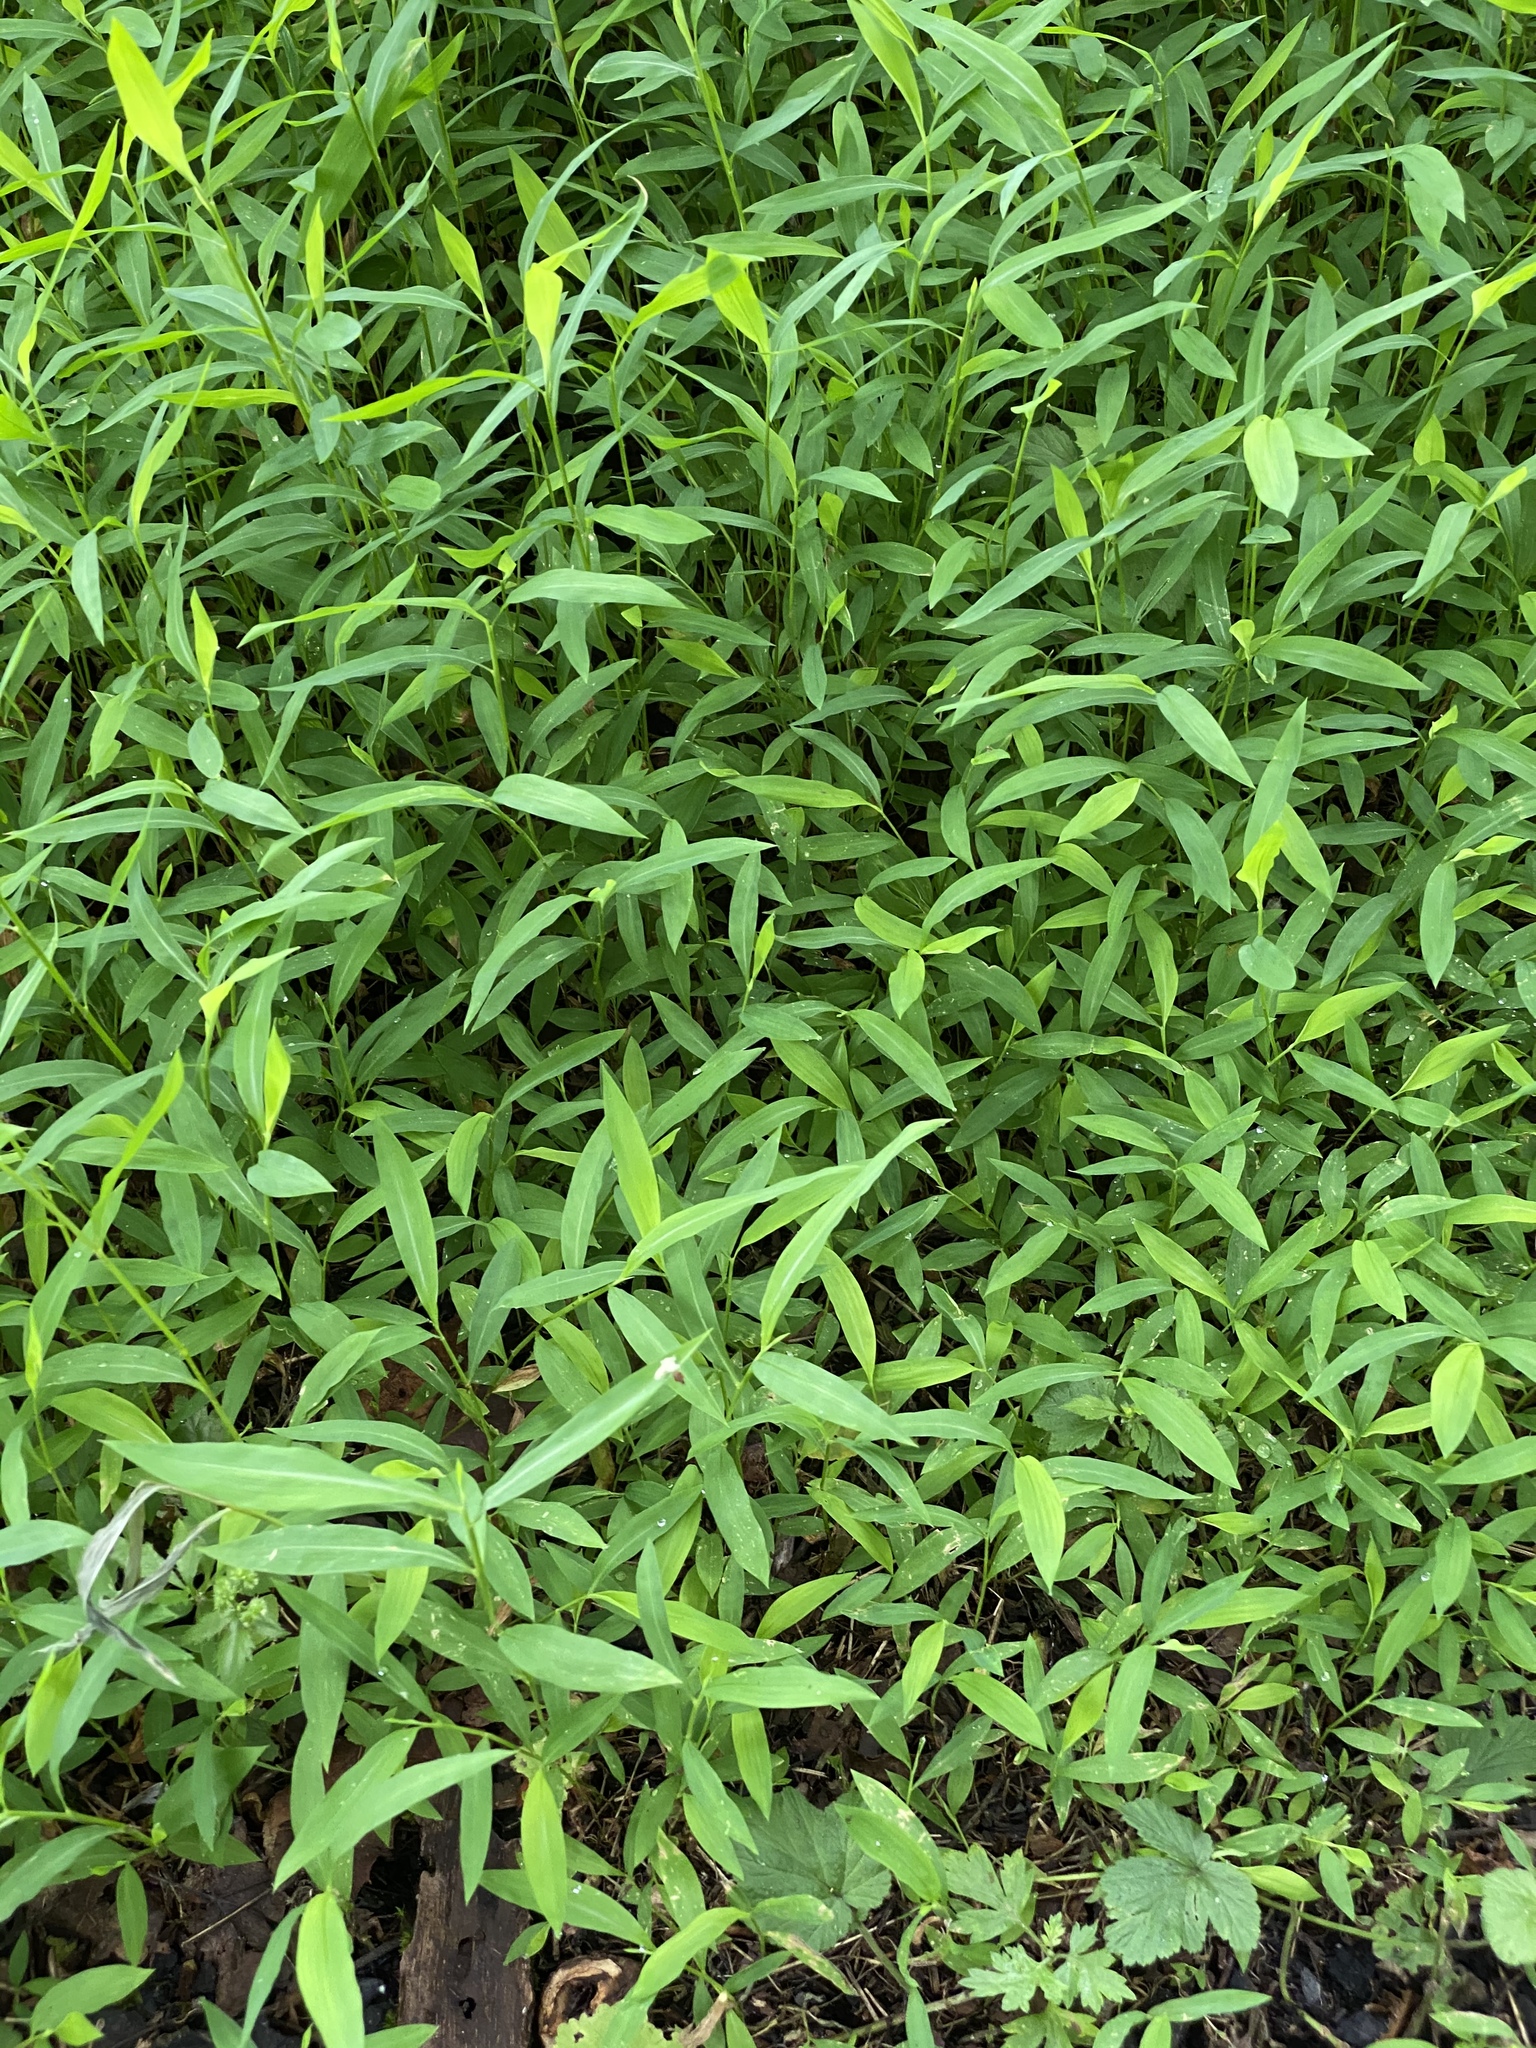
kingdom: Plantae
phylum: Tracheophyta
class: Liliopsida
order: Poales
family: Poaceae
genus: Microstegium
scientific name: Microstegium vimineum
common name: Japanese stiltgrass
